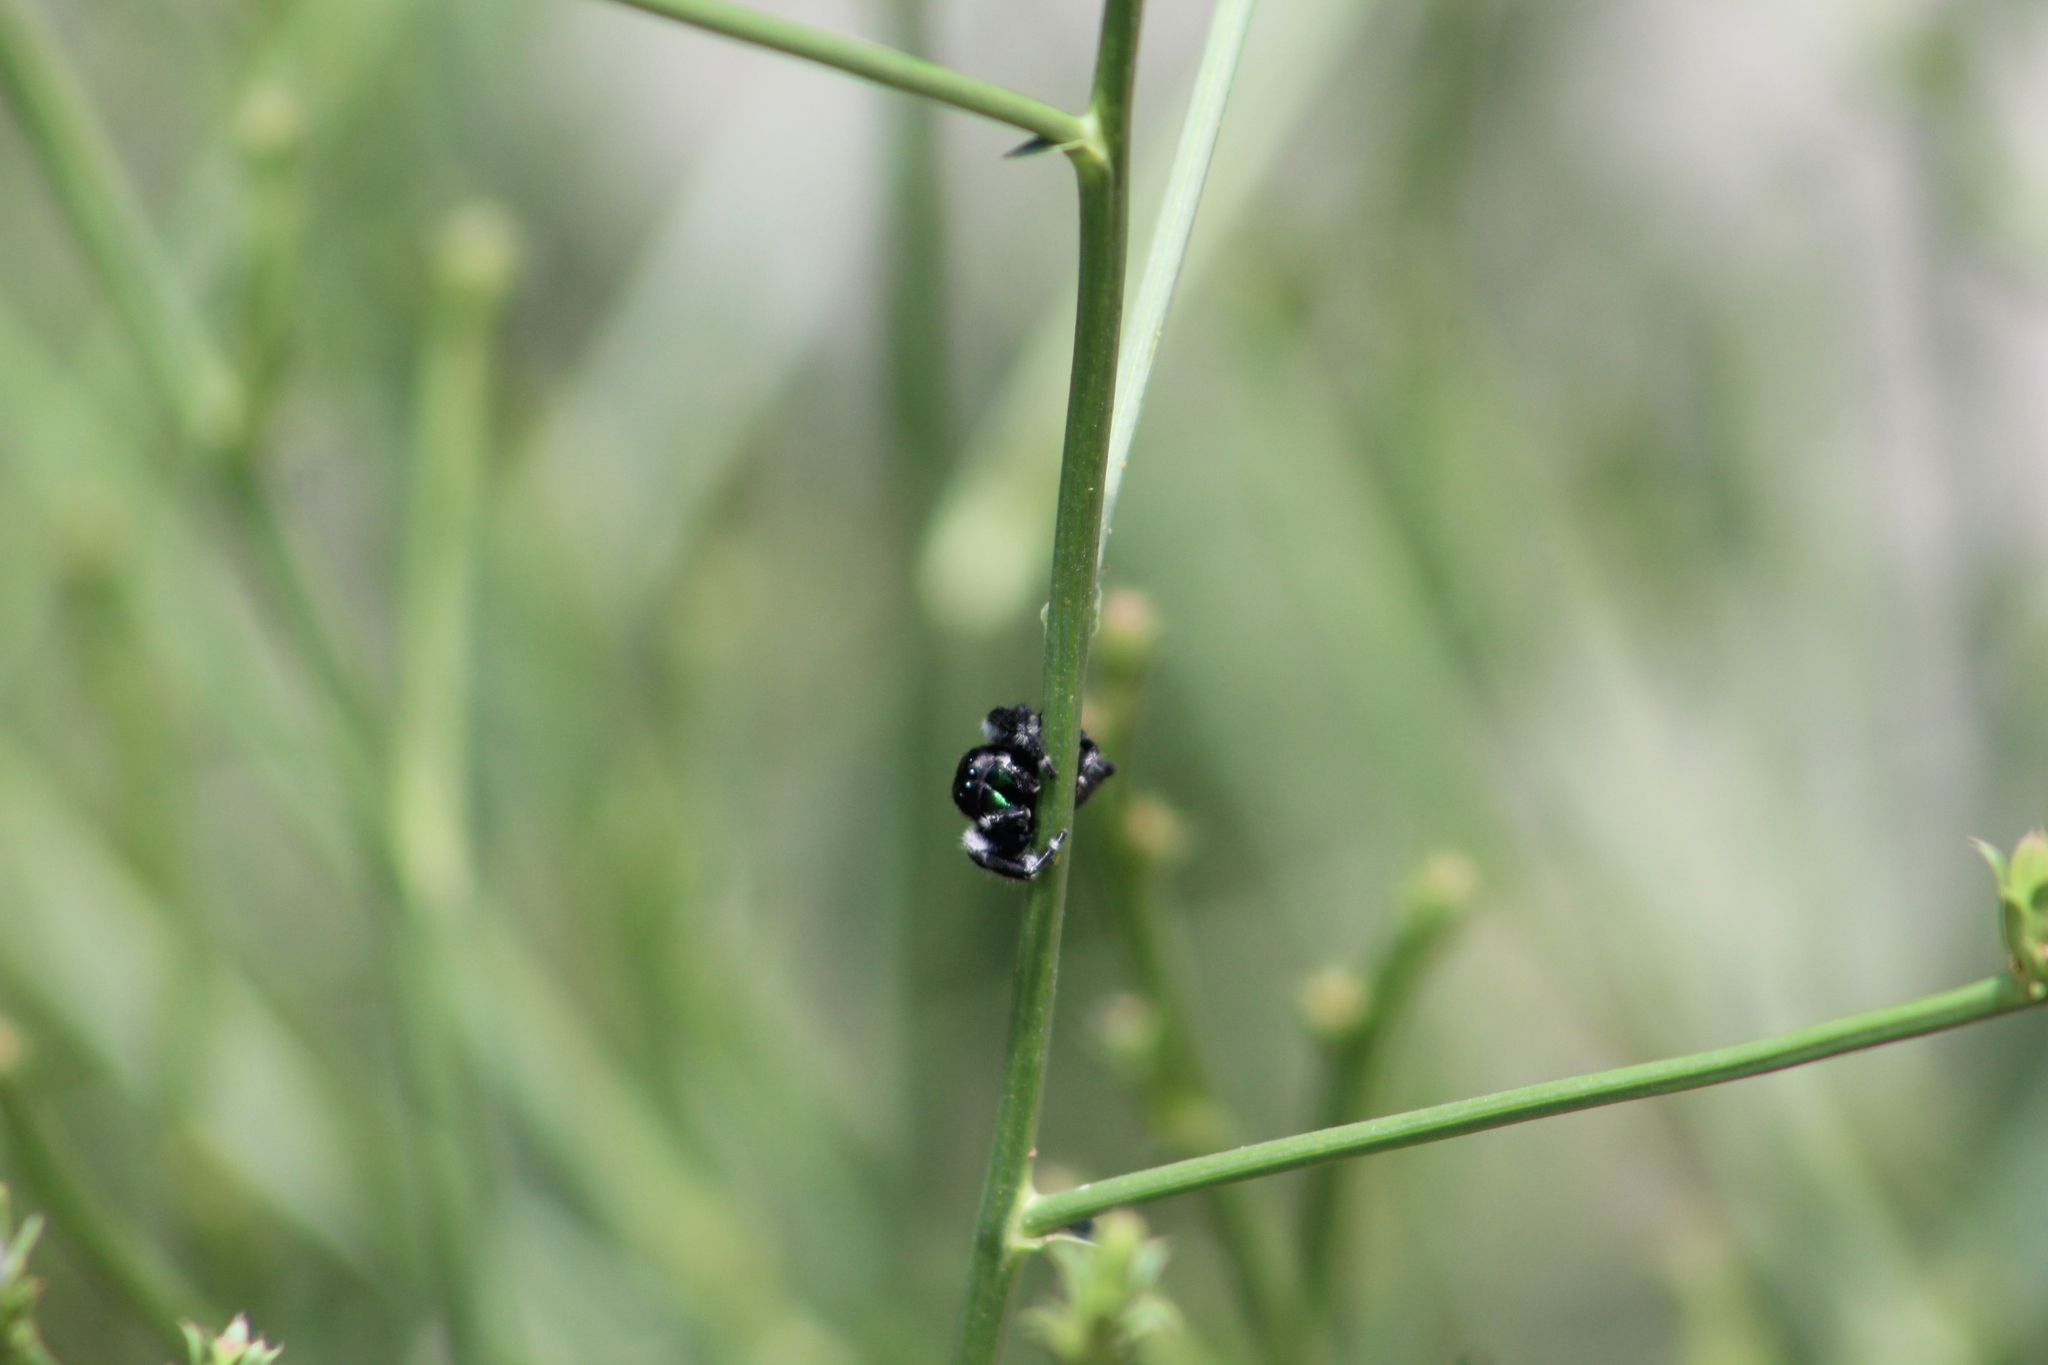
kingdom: Animalia
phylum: Arthropoda
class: Arachnida
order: Araneae
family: Salticidae
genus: Phidippus
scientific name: Phidippus audax
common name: Bold jumper
